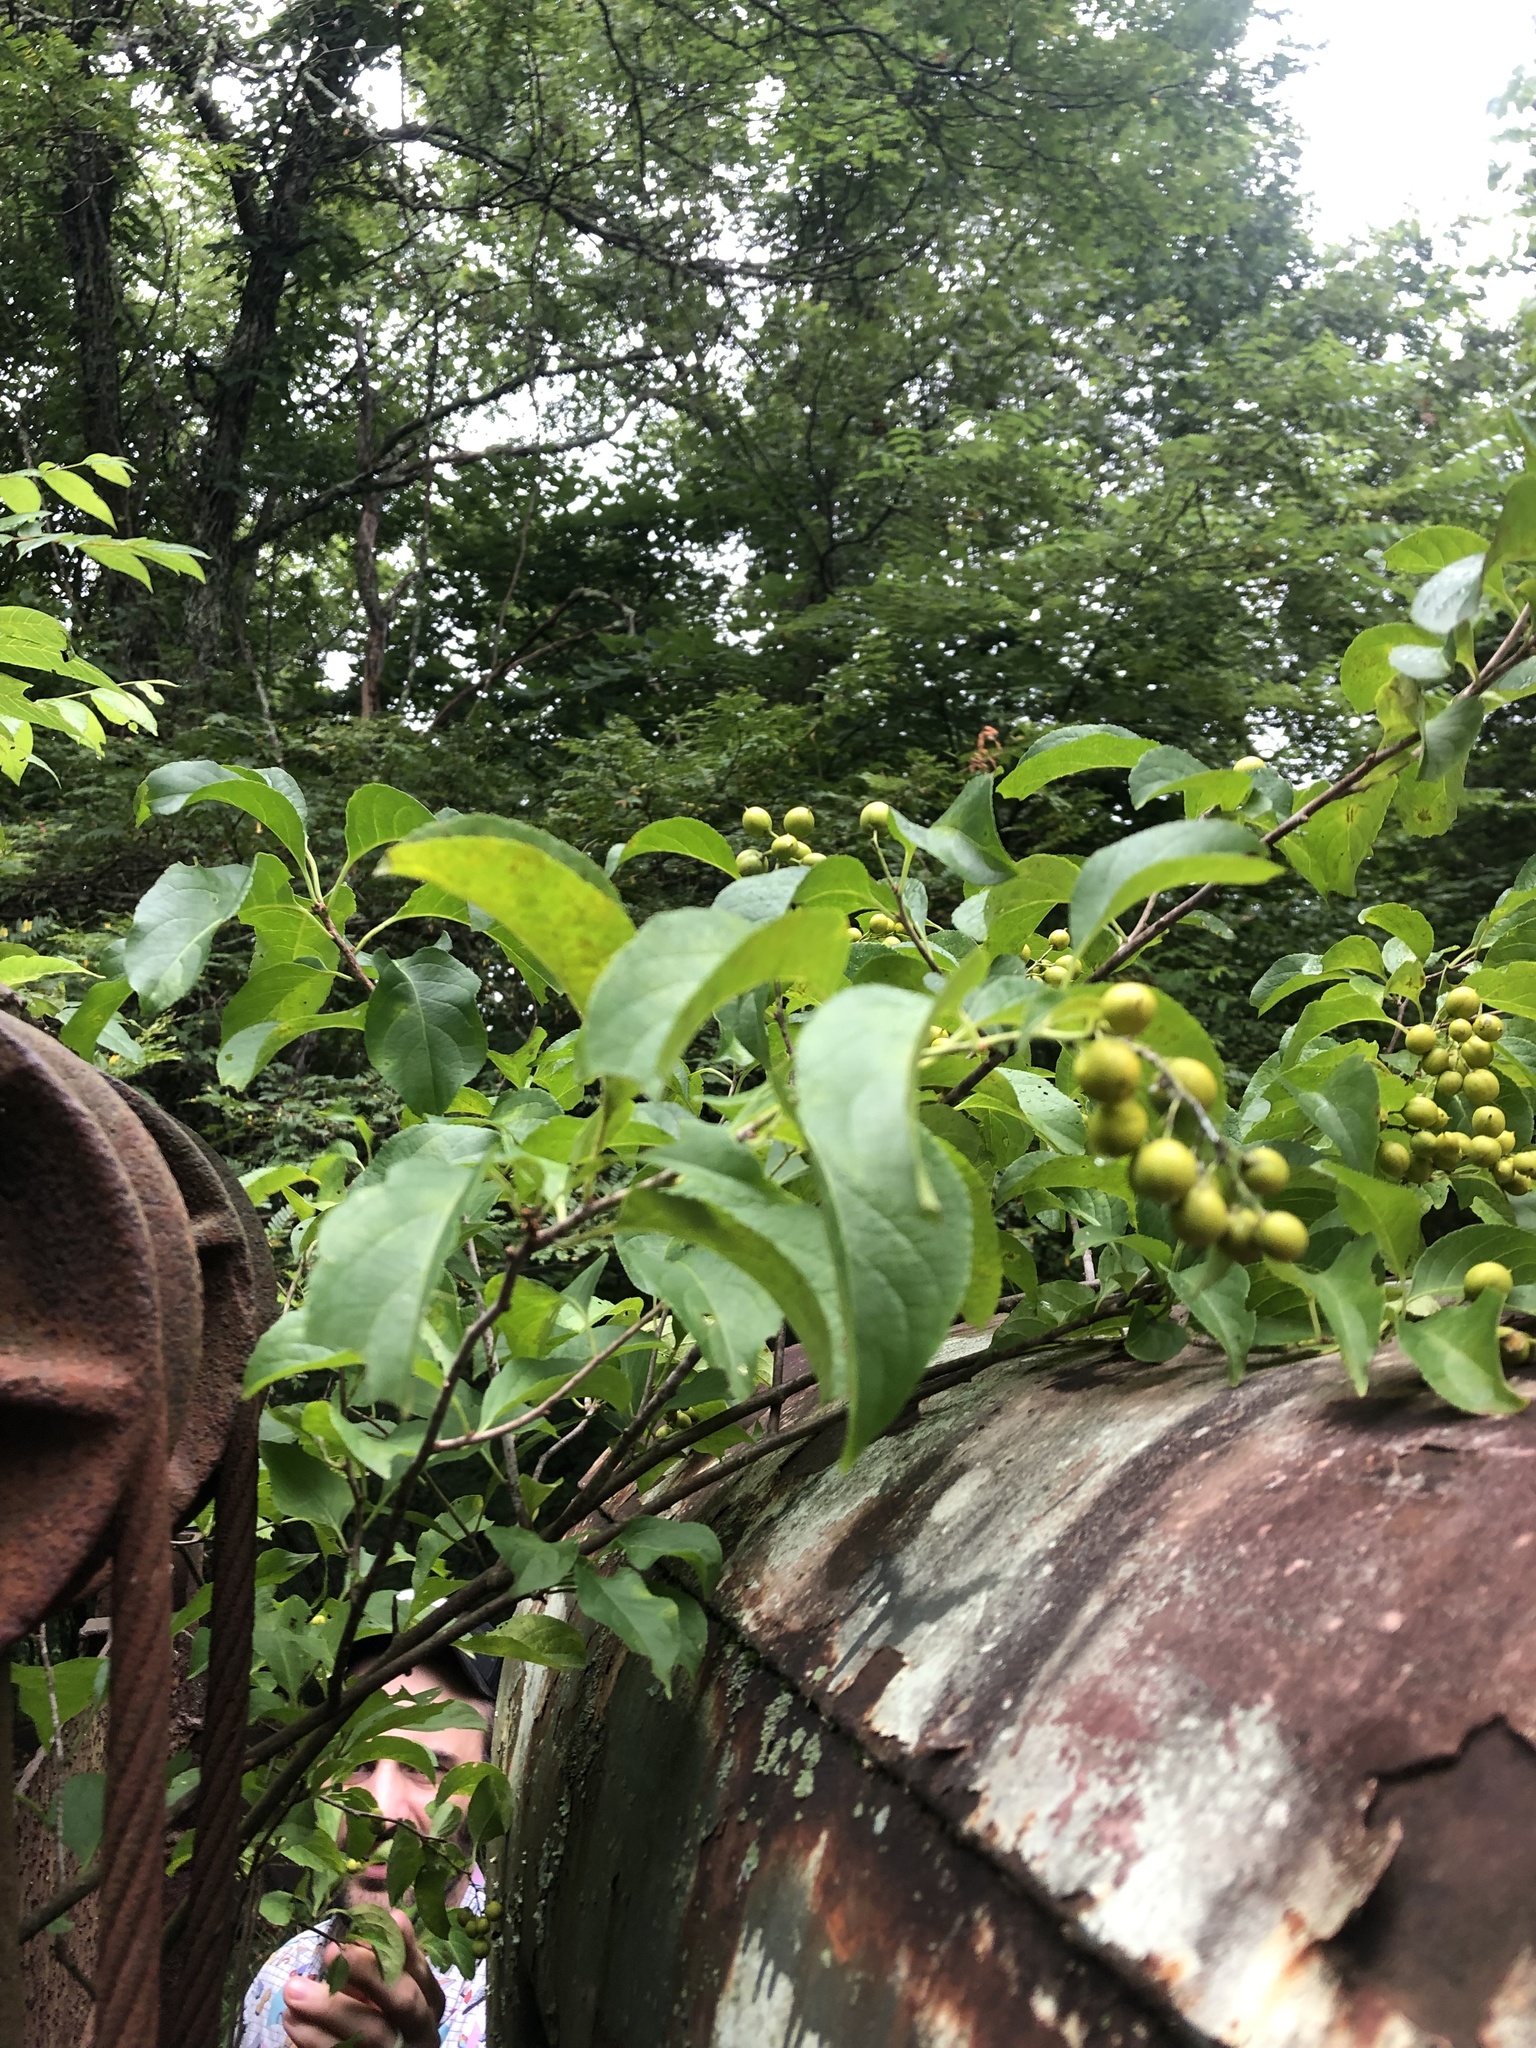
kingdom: Plantae
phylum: Tracheophyta
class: Magnoliopsida
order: Celastrales
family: Celastraceae
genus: Celastrus
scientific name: Celastrus scandens
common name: American bittersweet
